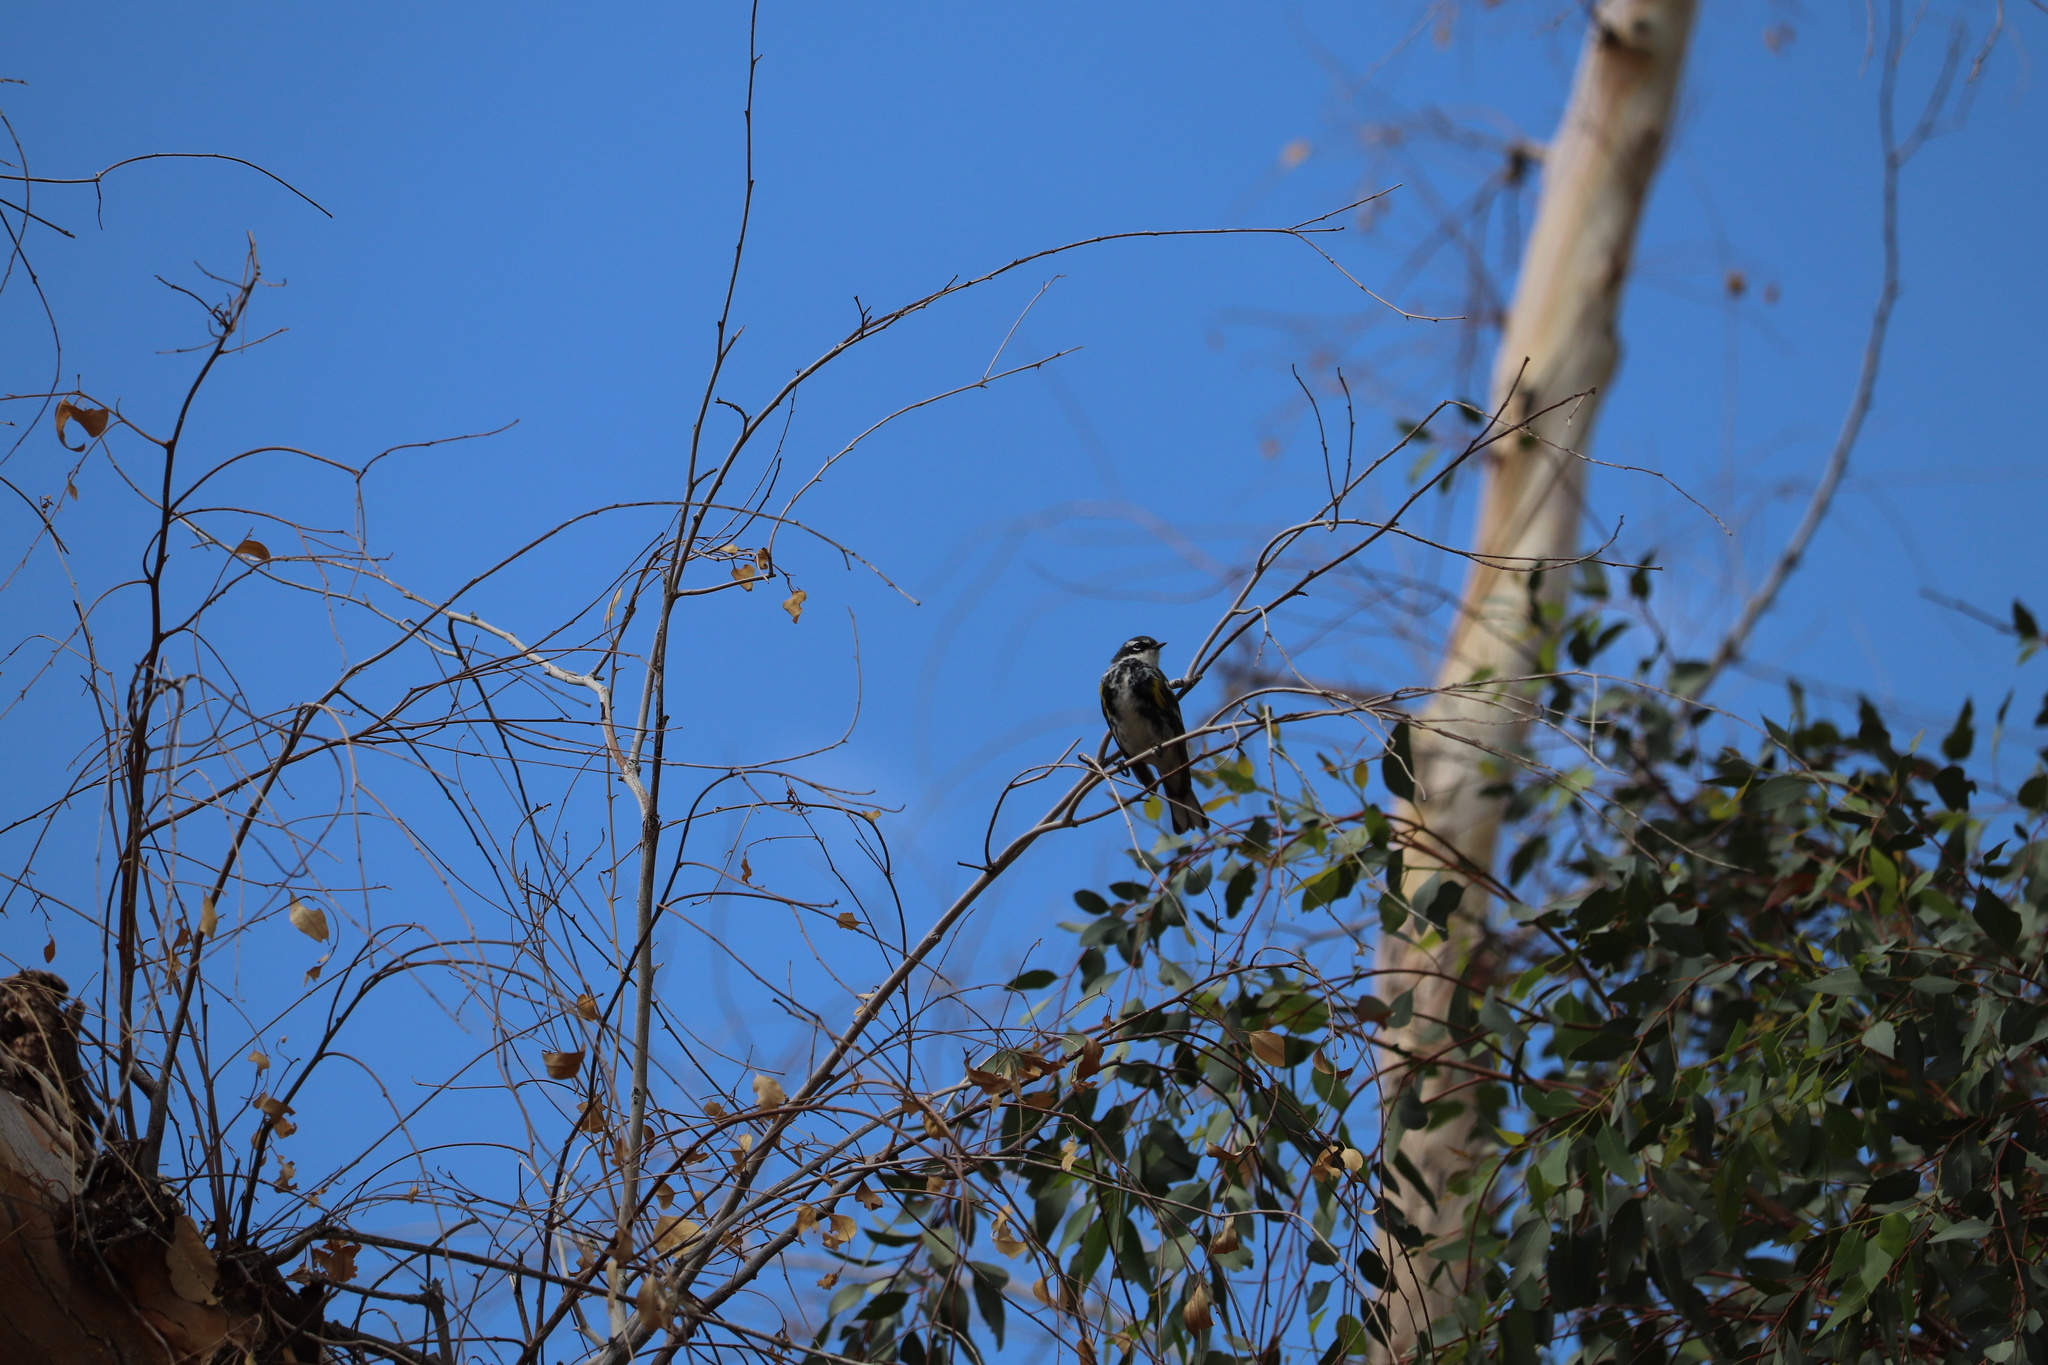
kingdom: Animalia
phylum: Chordata
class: Aves
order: Passeriformes
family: Parulidae
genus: Setophaga
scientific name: Setophaga coronata
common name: Myrtle warbler
